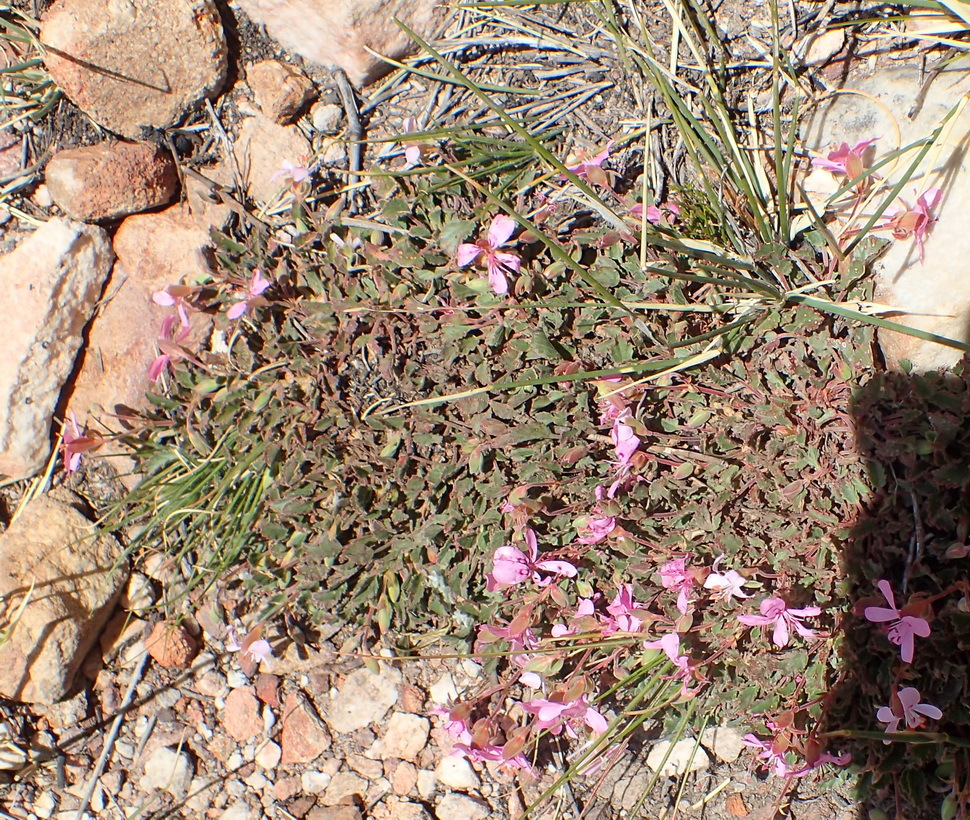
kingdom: Plantae
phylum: Tracheophyta
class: Magnoliopsida
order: Geraniales
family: Geraniaceae
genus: Pelargonium
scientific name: Pelargonium ovale
